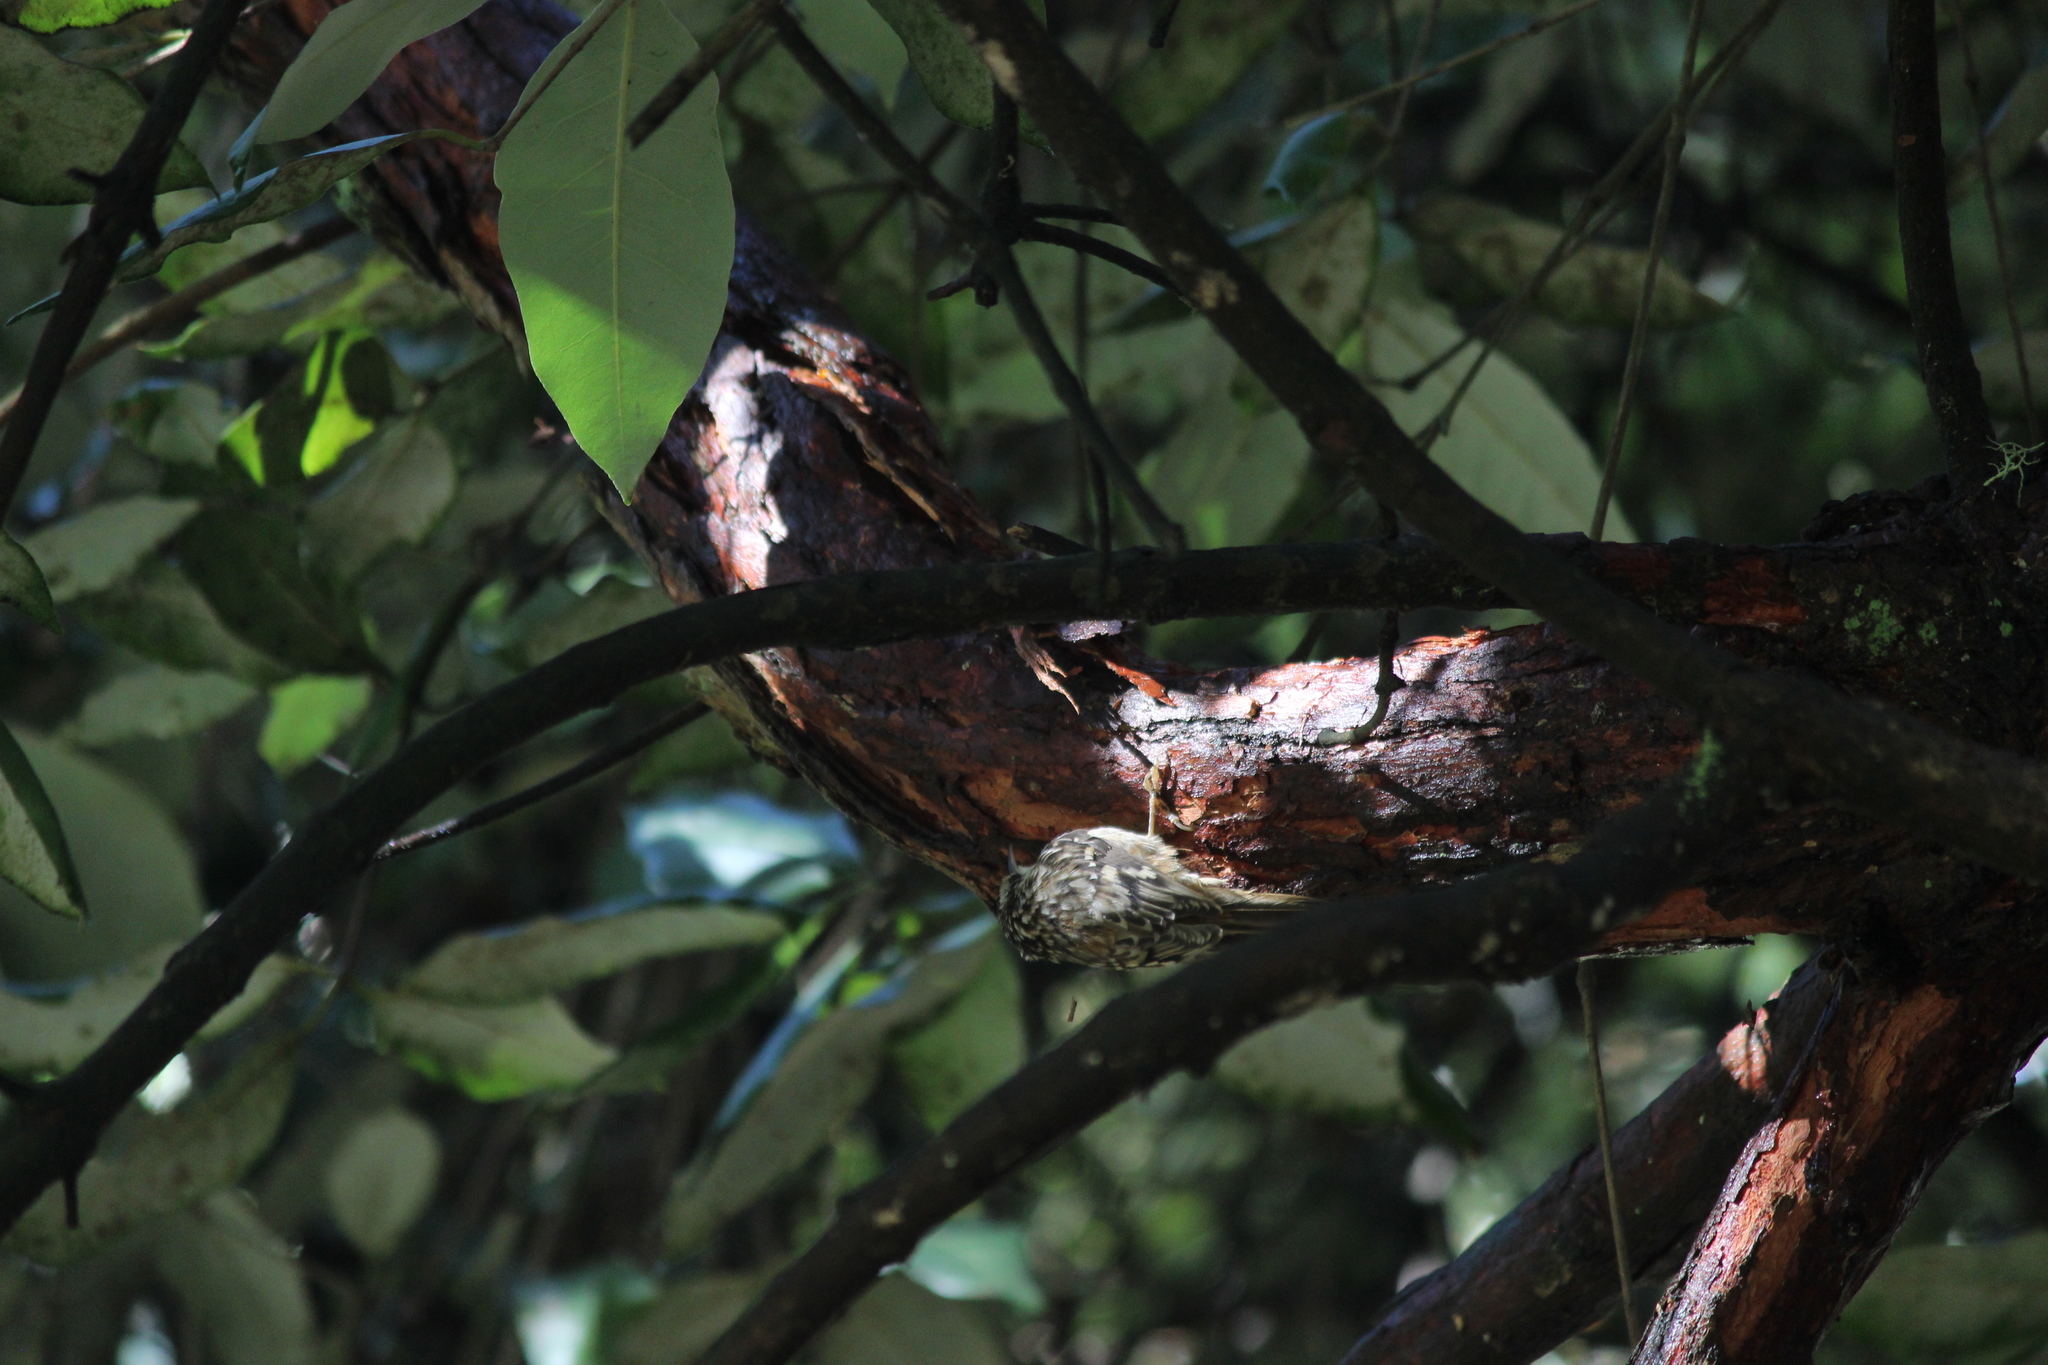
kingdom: Animalia
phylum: Chordata
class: Aves
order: Passeriformes
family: Certhiidae
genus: Certhia
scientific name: Certhia americana
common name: Brown creeper
